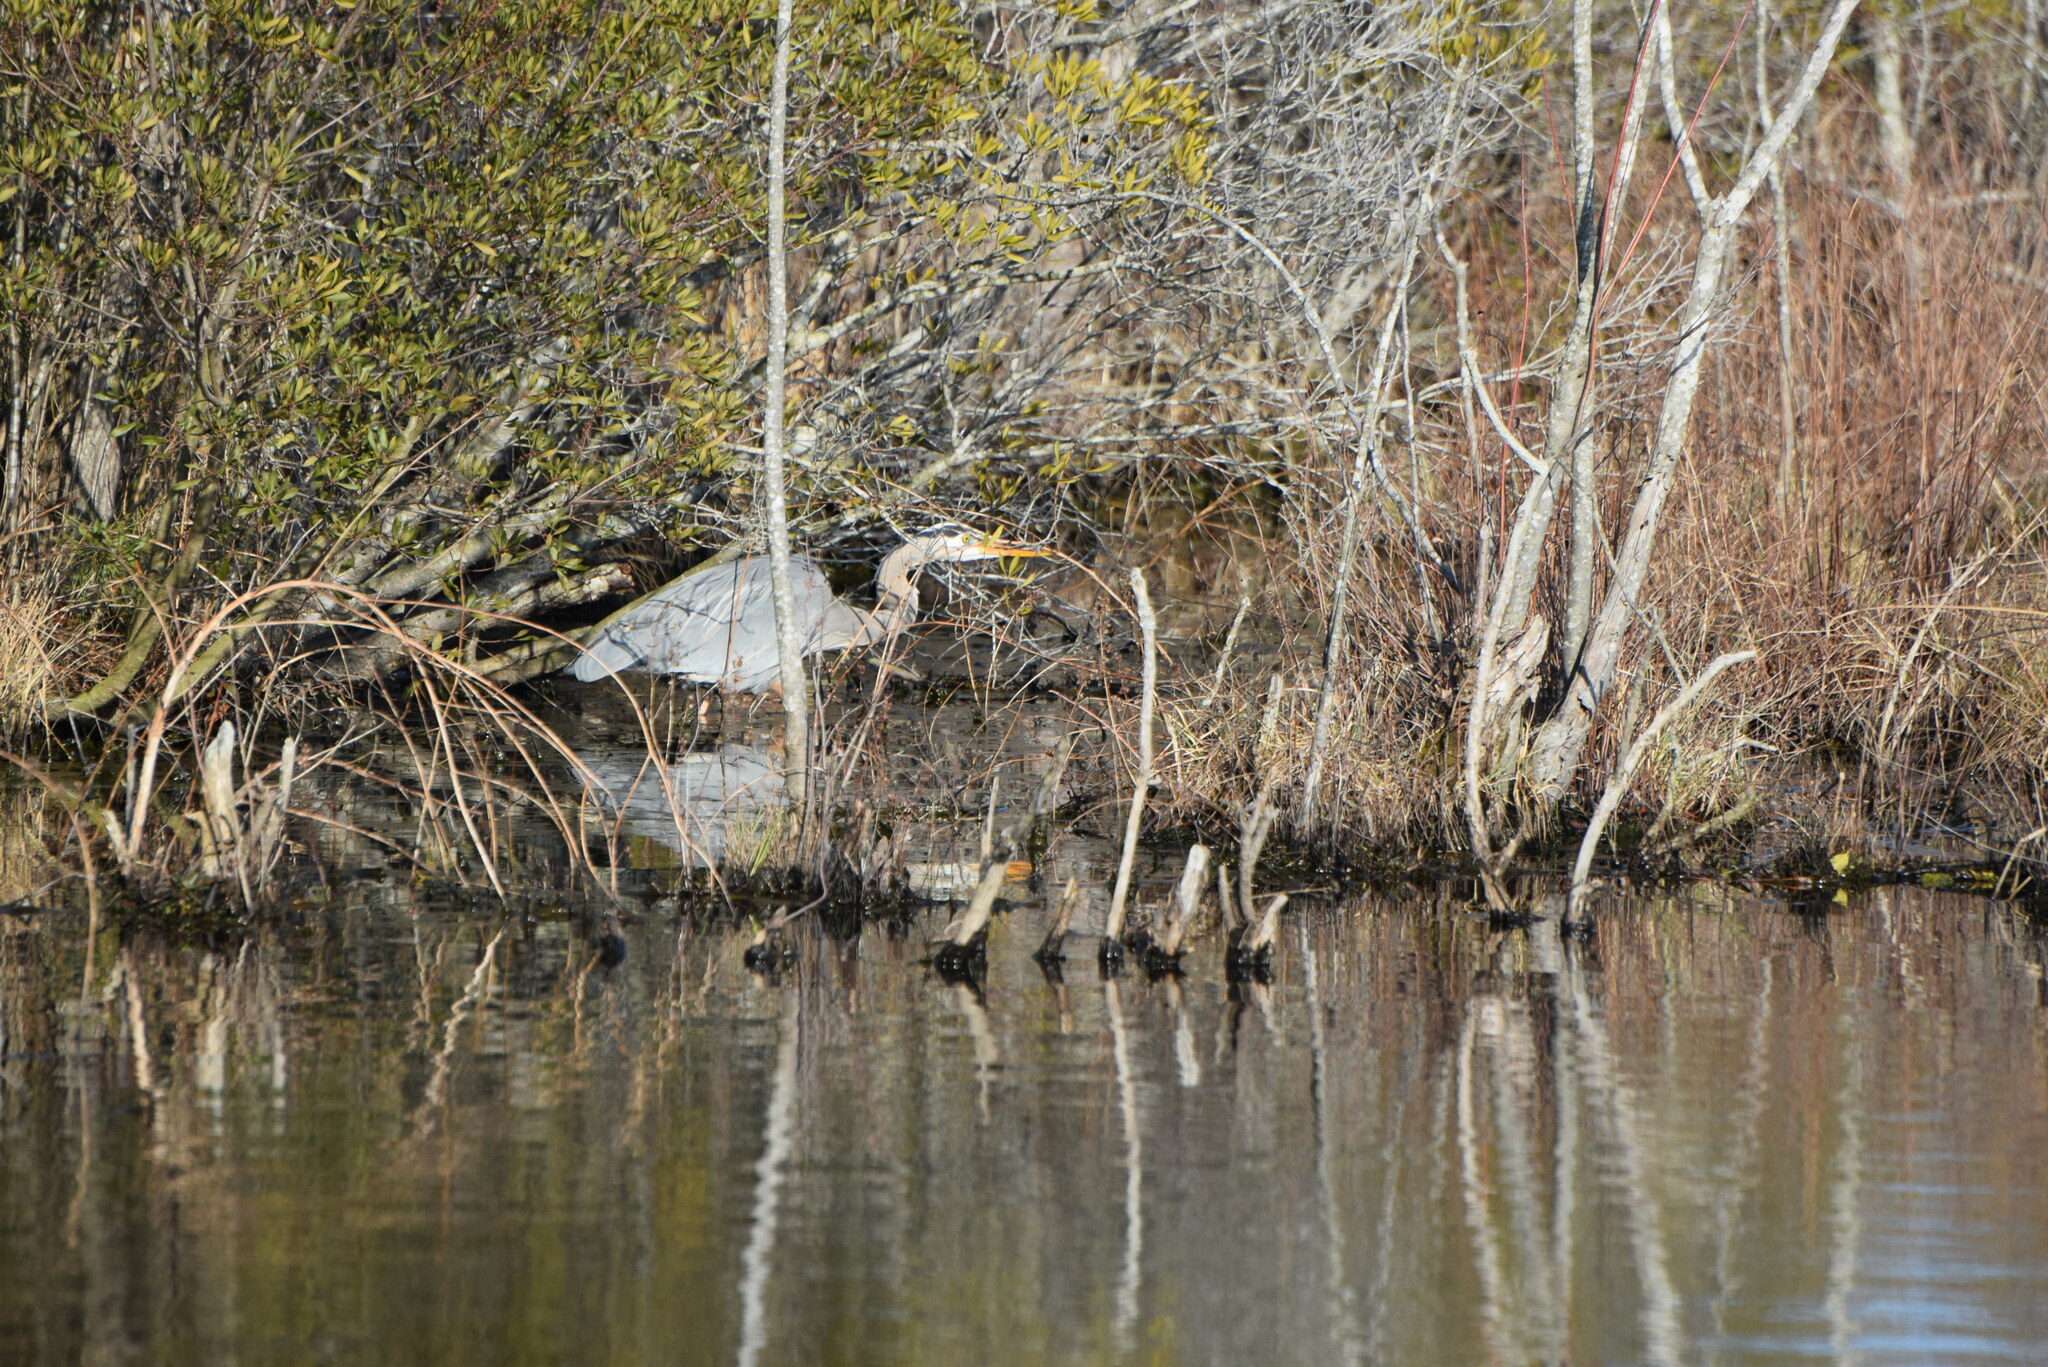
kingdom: Animalia
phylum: Chordata
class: Aves
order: Pelecaniformes
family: Ardeidae
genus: Ardea
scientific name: Ardea herodias
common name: Great blue heron
